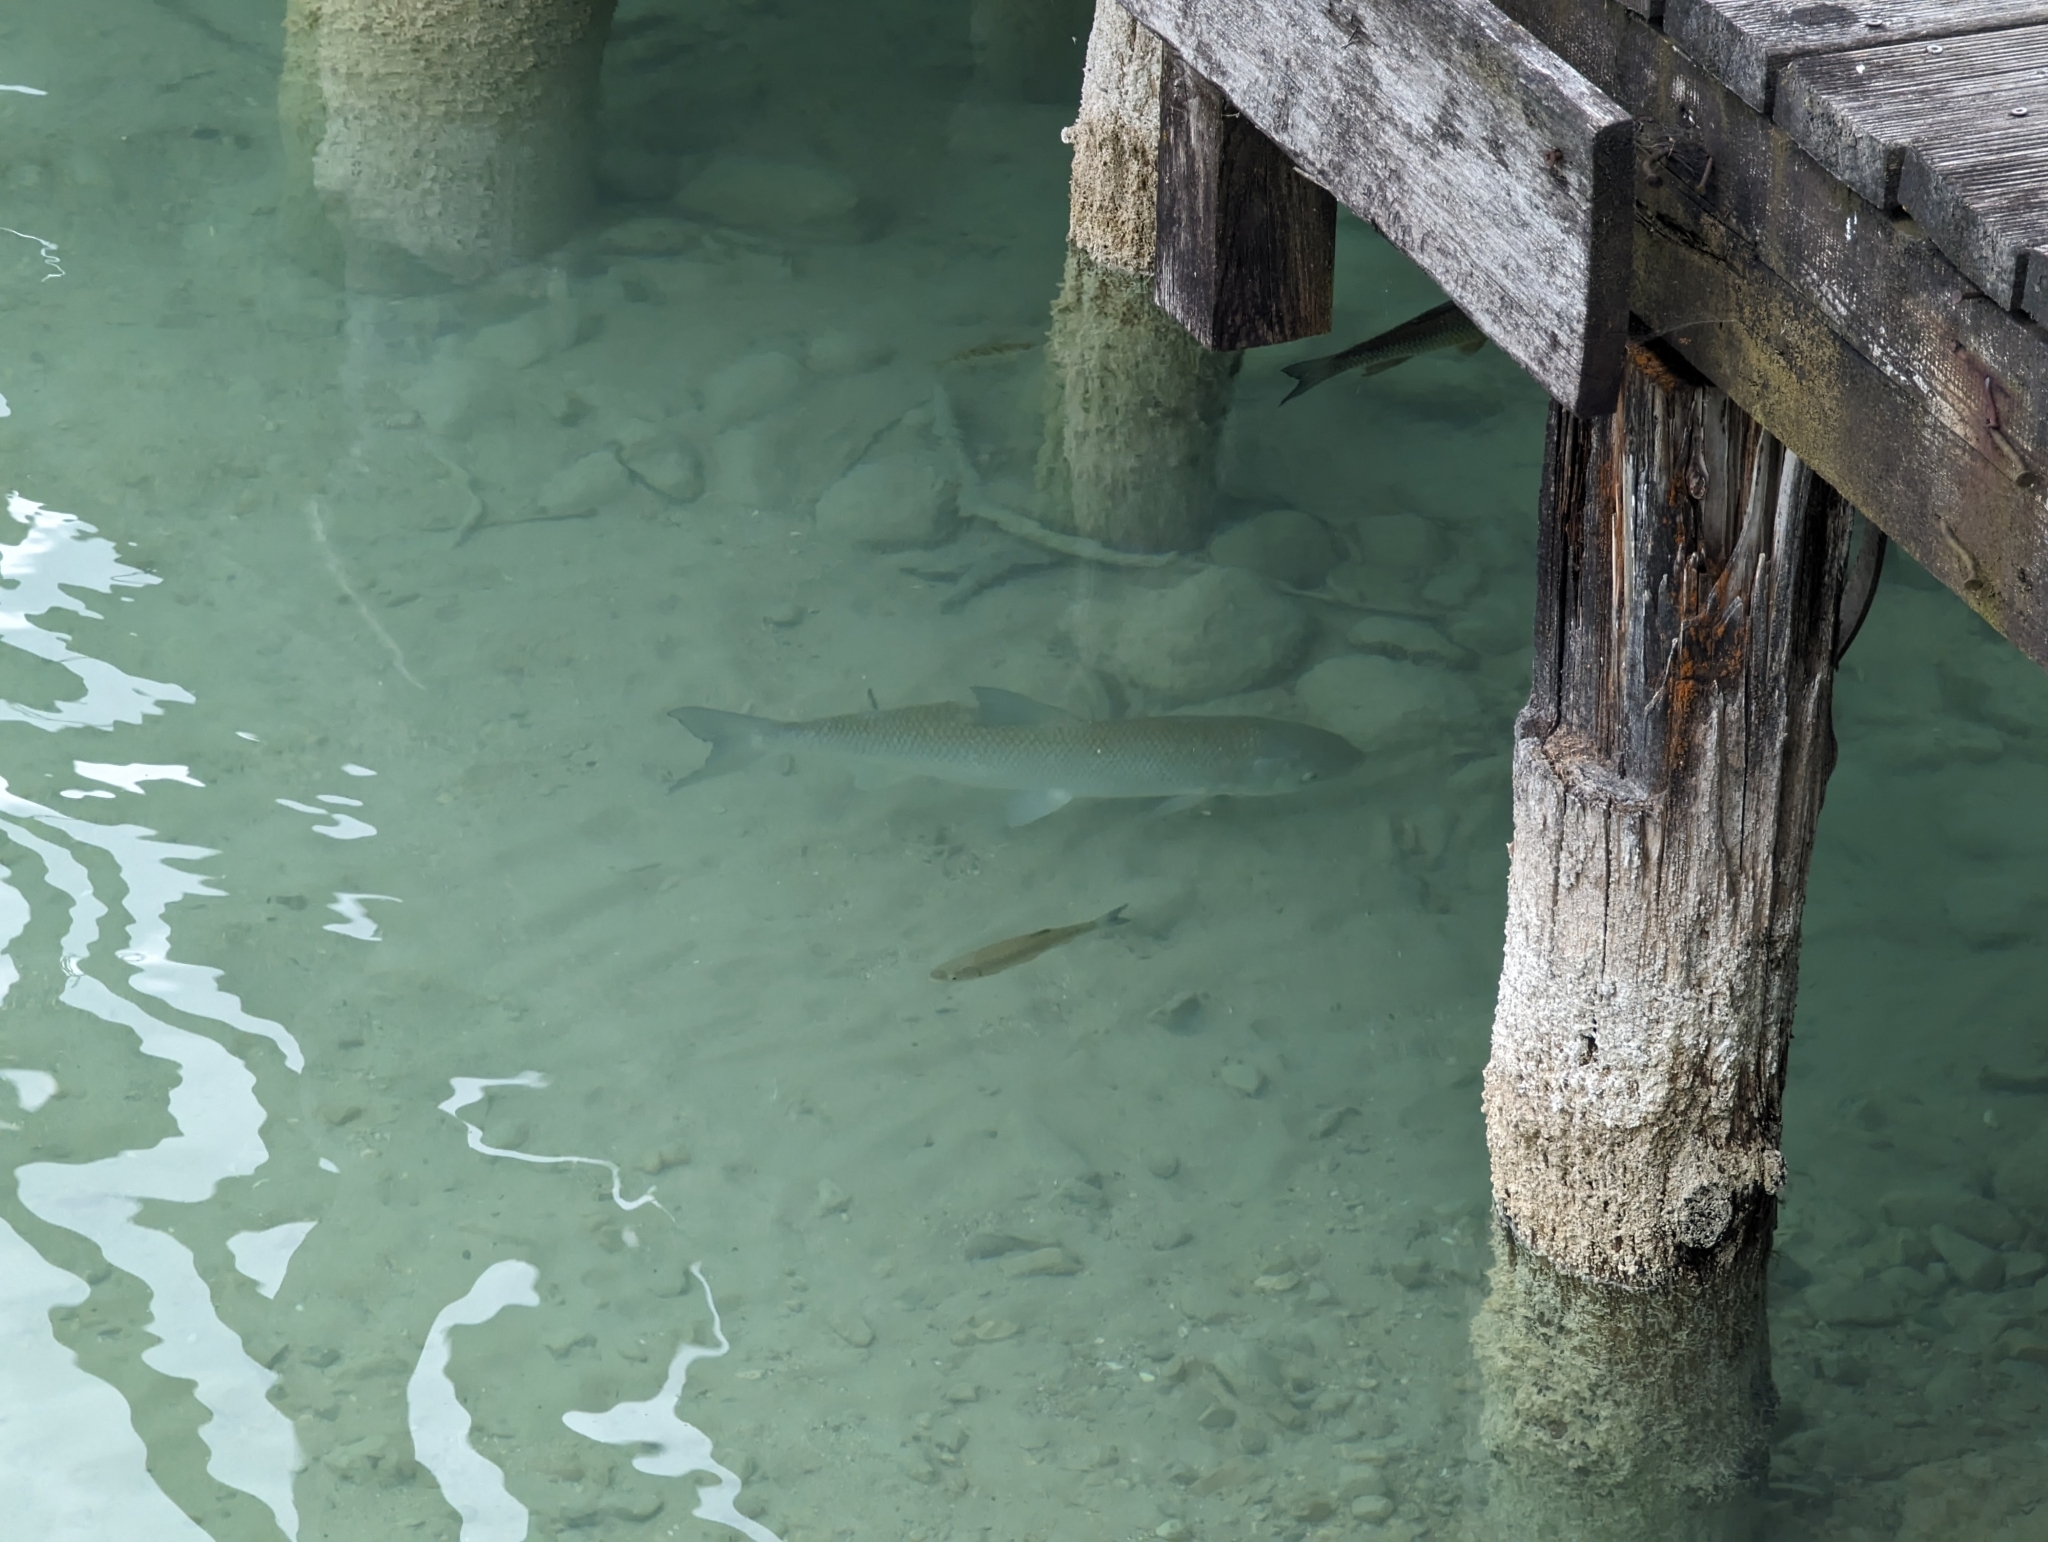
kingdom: Animalia
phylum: Chordata
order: Cypriniformes
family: Cyprinidae
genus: Leuciscus
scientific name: Leuciscus aspius
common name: Asp
